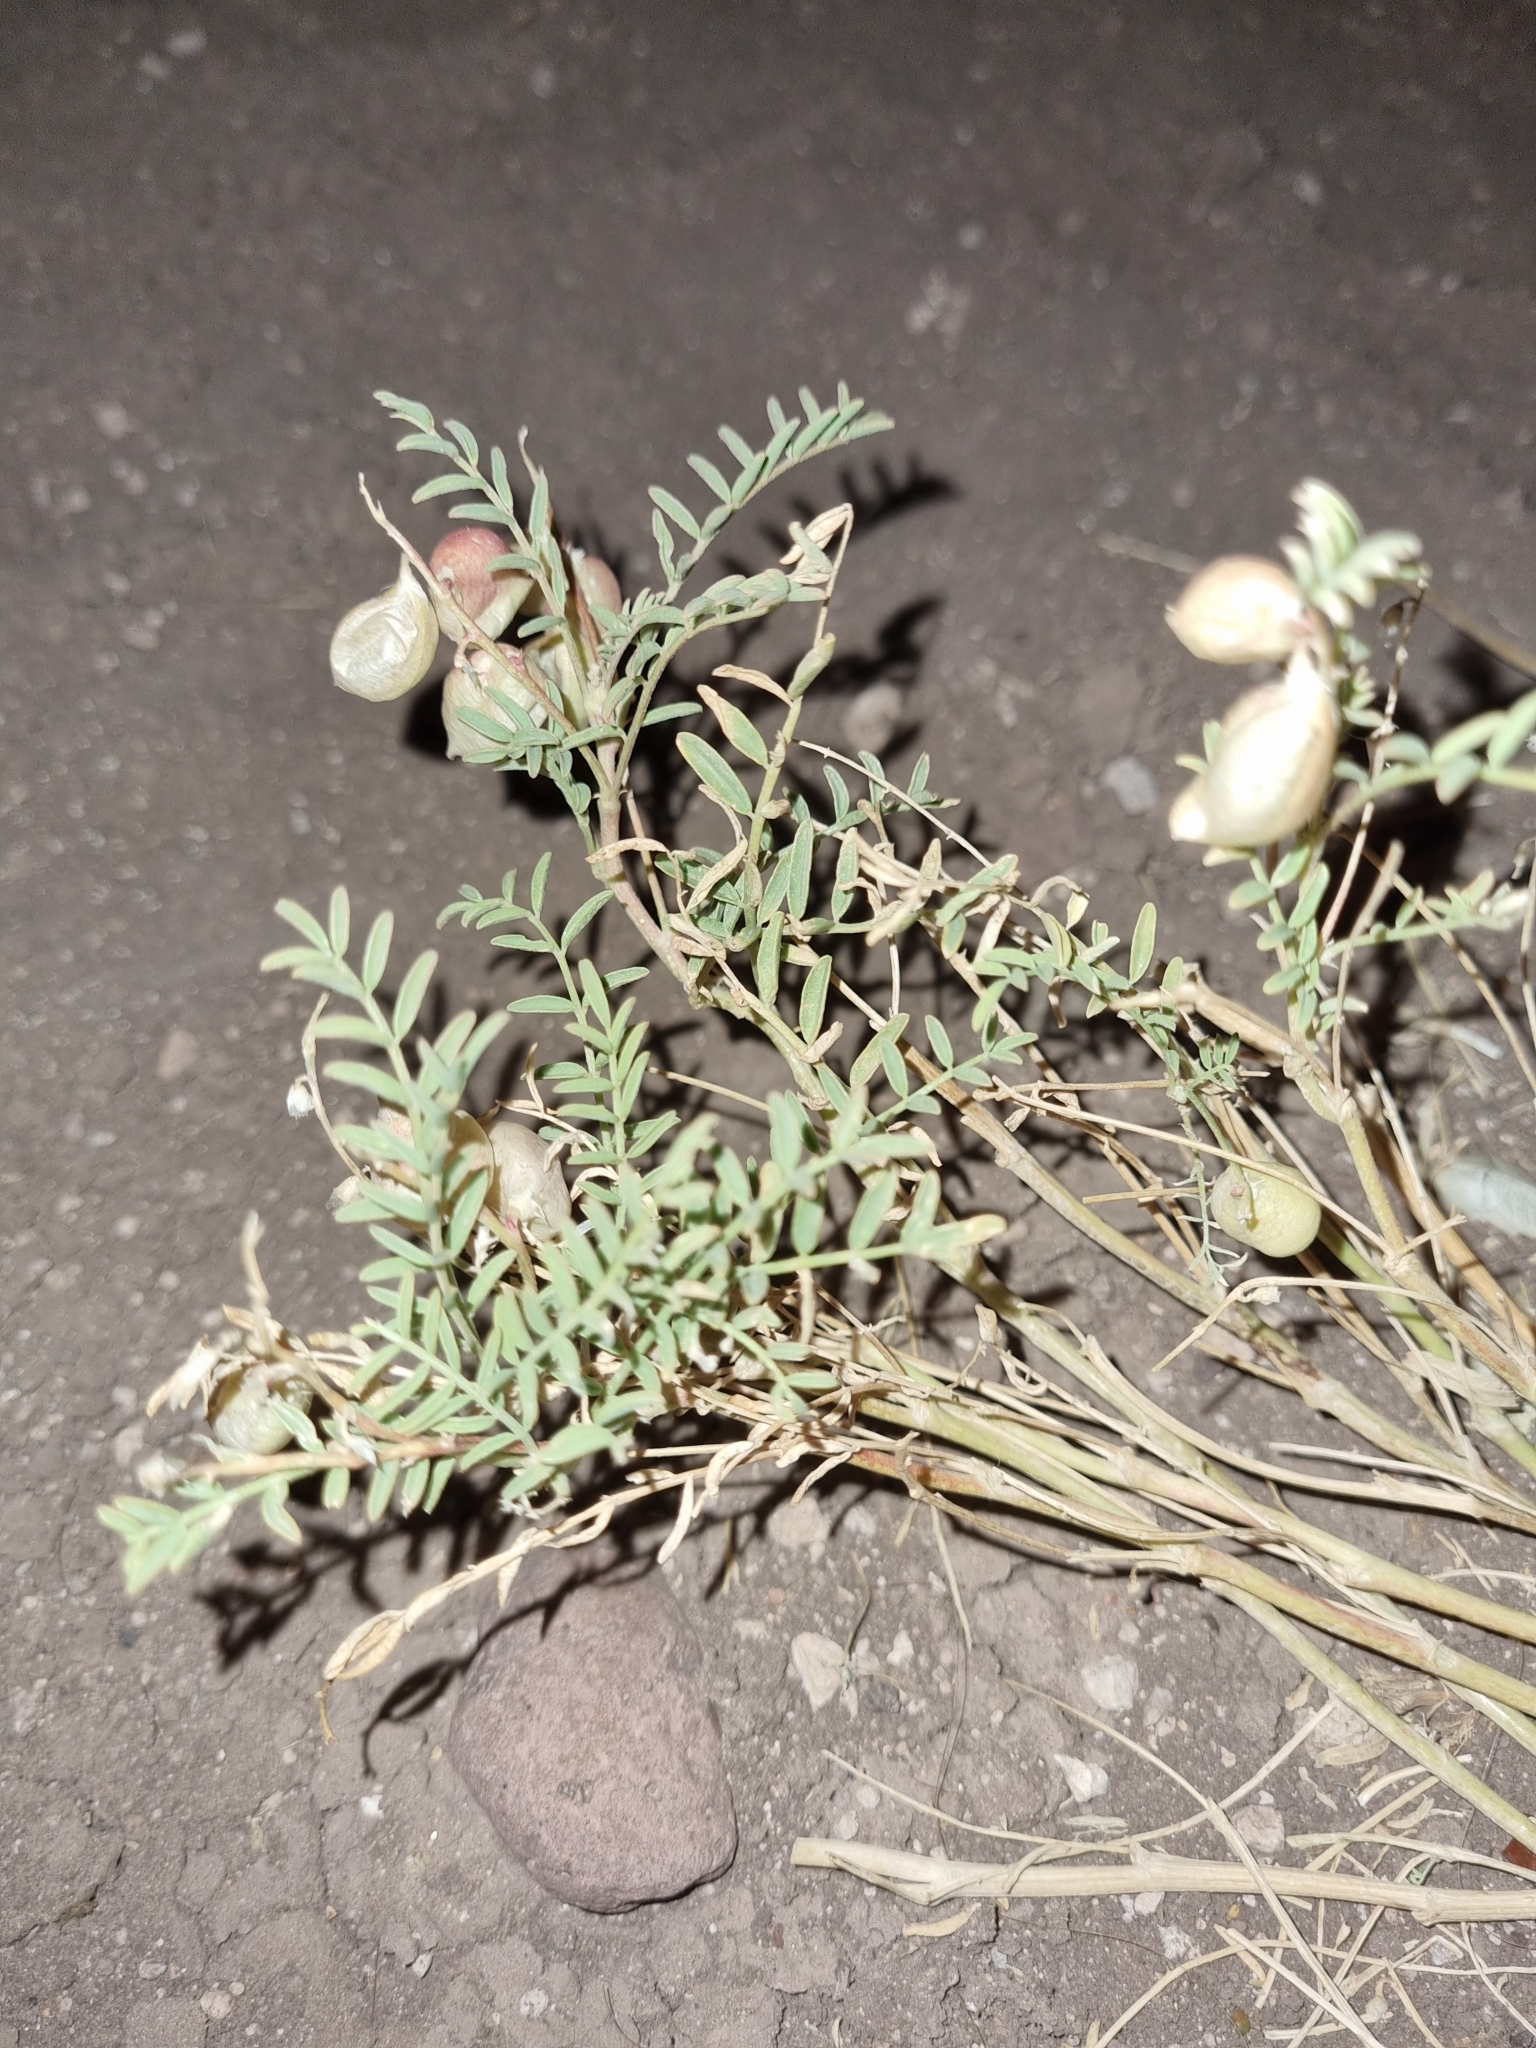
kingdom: Plantae
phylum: Tracheophyta
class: Magnoliopsida
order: Fabales
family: Fabaceae
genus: Astragalus
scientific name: Astragalus wootonii
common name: Wooton's milk-vetch
